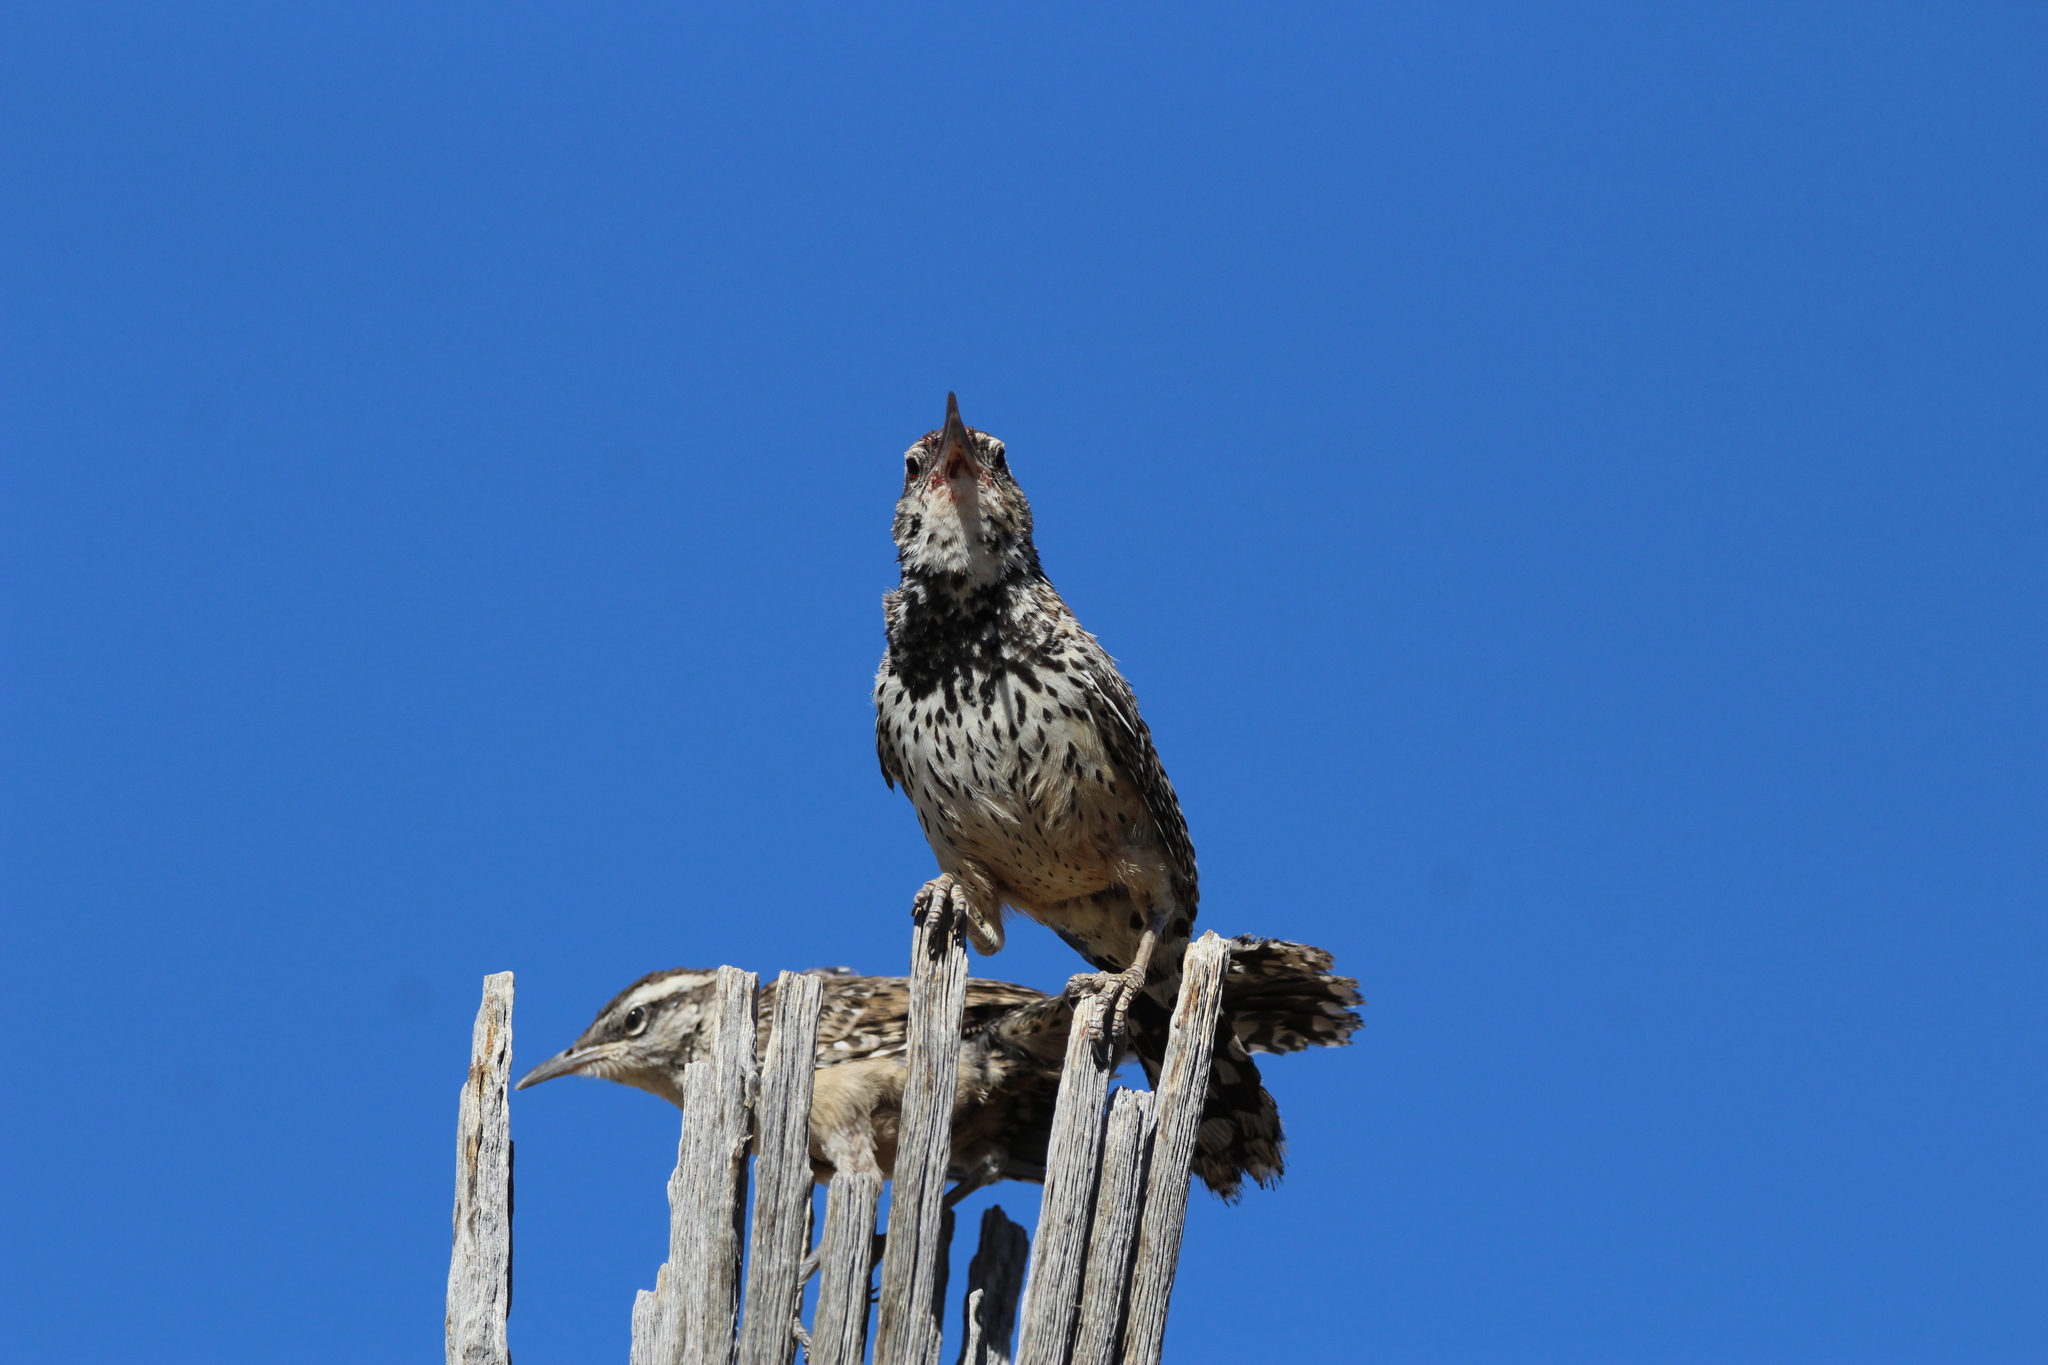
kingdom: Animalia
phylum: Chordata
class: Aves
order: Passeriformes
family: Troglodytidae
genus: Campylorhynchus
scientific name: Campylorhynchus brunneicapillus
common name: Cactus wren
